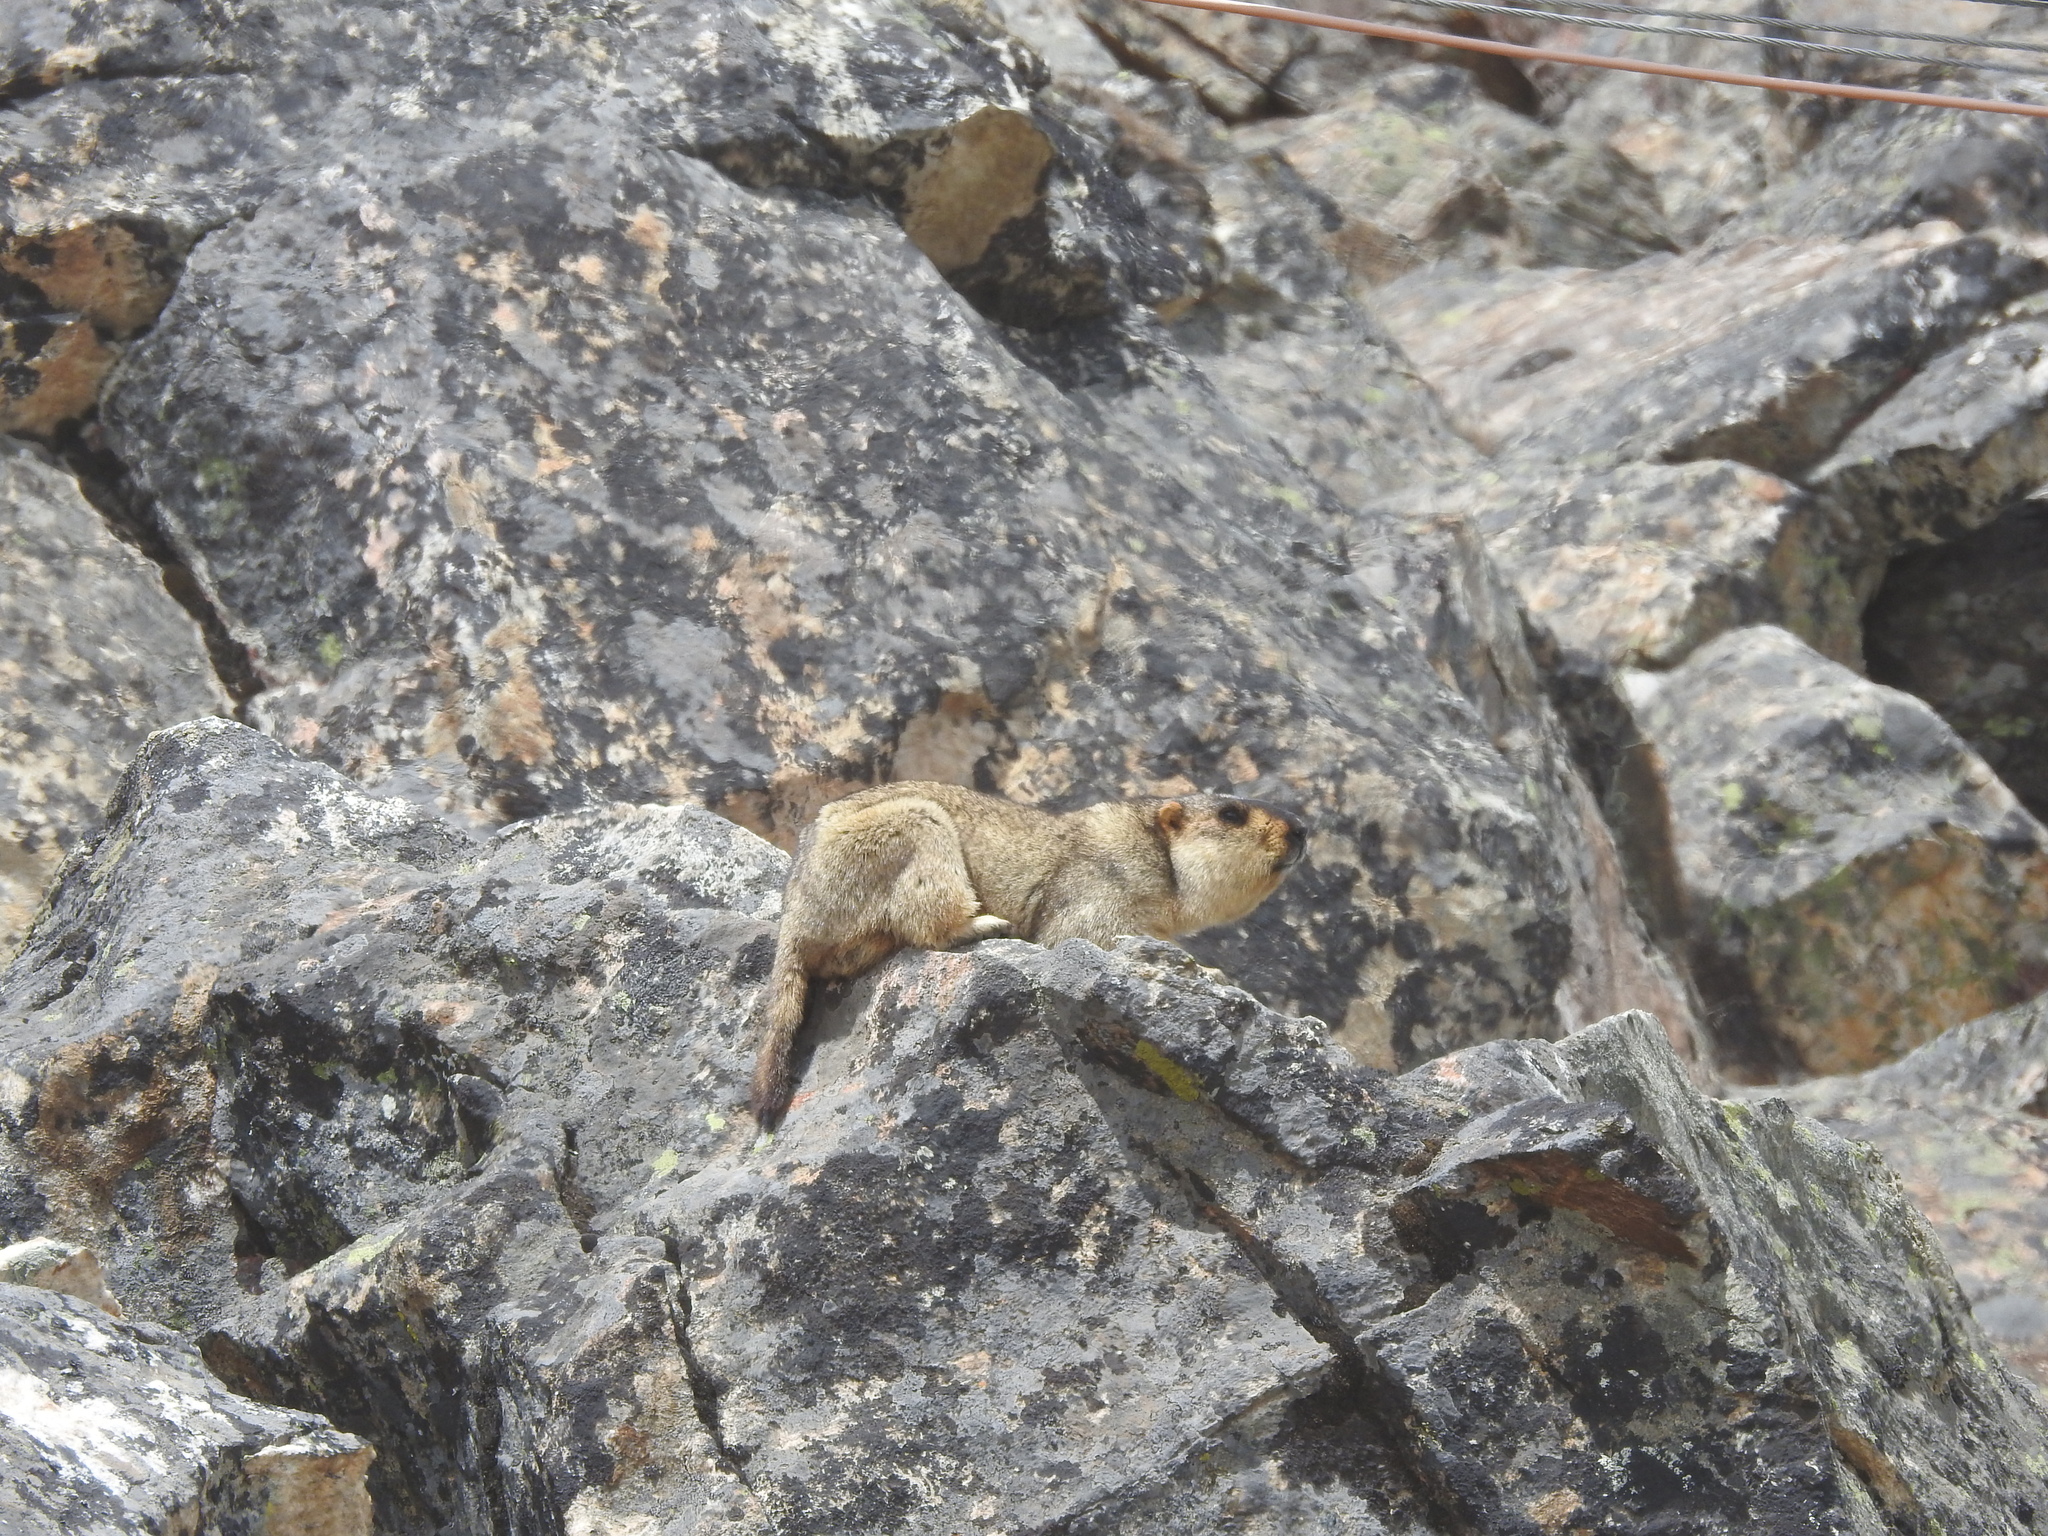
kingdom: Animalia
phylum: Chordata
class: Mammalia
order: Rodentia
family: Sciuridae
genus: Marmota
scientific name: Marmota himalayana
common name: Himalayan marmot
